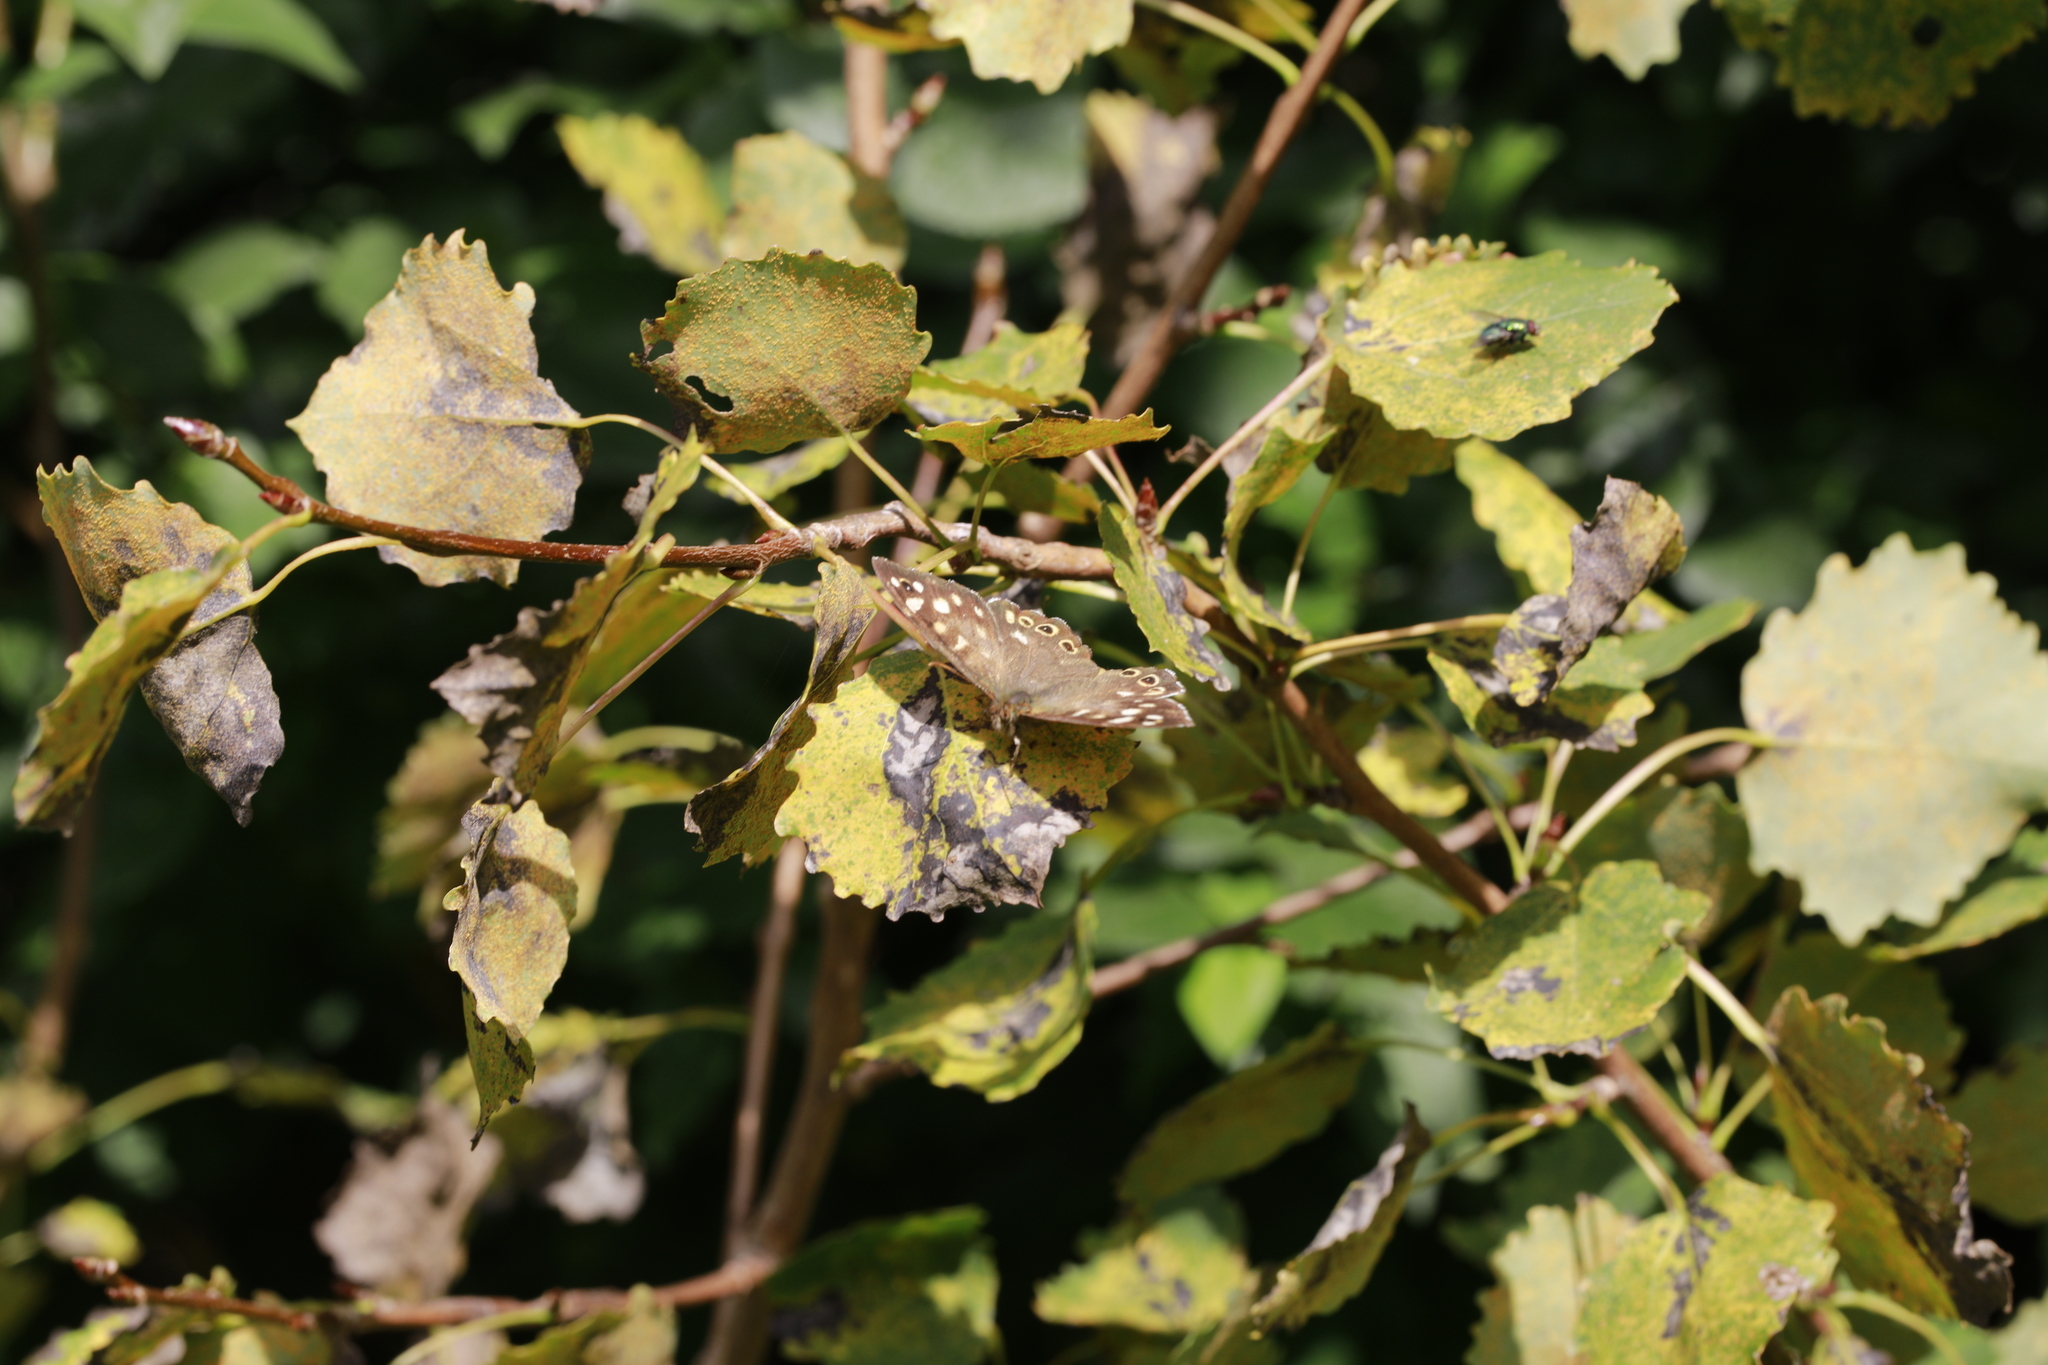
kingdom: Animalia
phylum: Arthropoda
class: Insecta
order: Lepidoptera
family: Nymphalidae
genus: Pararge
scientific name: Pararge aegeria
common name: Speckled wood
